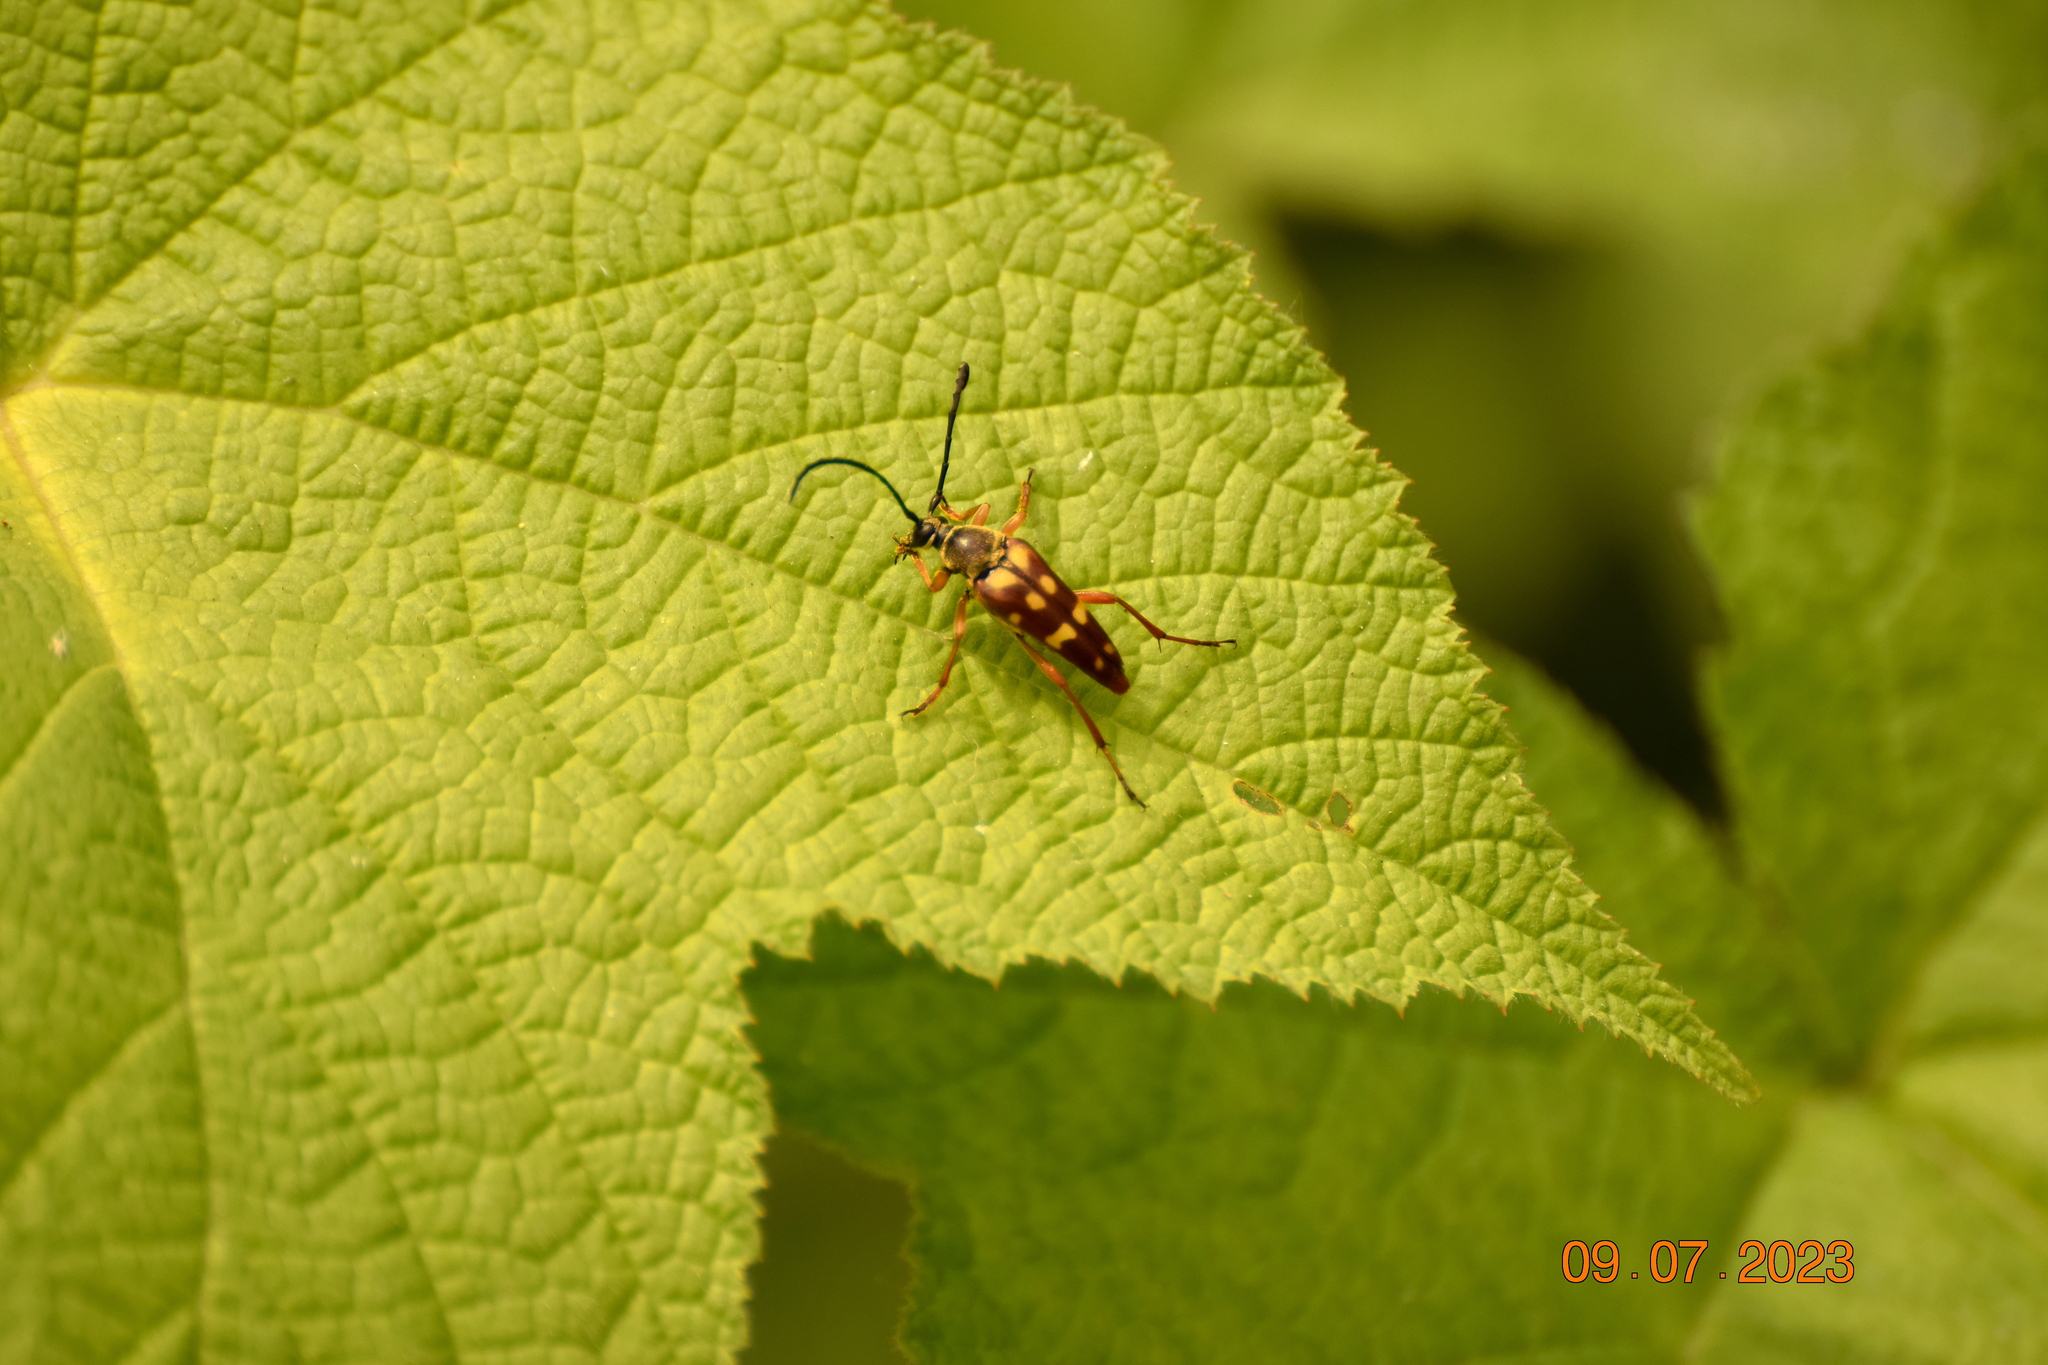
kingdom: Animalia
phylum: Arthropoda
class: Insecta
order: Coleoptera
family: Cerambycidae
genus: Typocerus
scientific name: Typocerus velutinus
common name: Banded longhorn beetle
